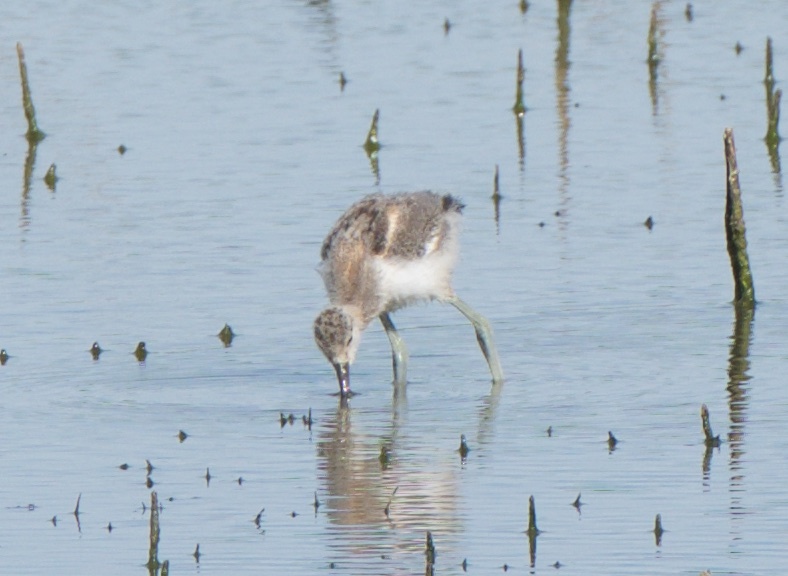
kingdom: Animalia
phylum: Chordata
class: Aves
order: Charadriiformes
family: Recurvirostridae
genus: Recurvirostra
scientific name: Recurvirostra americana
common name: American avocet
